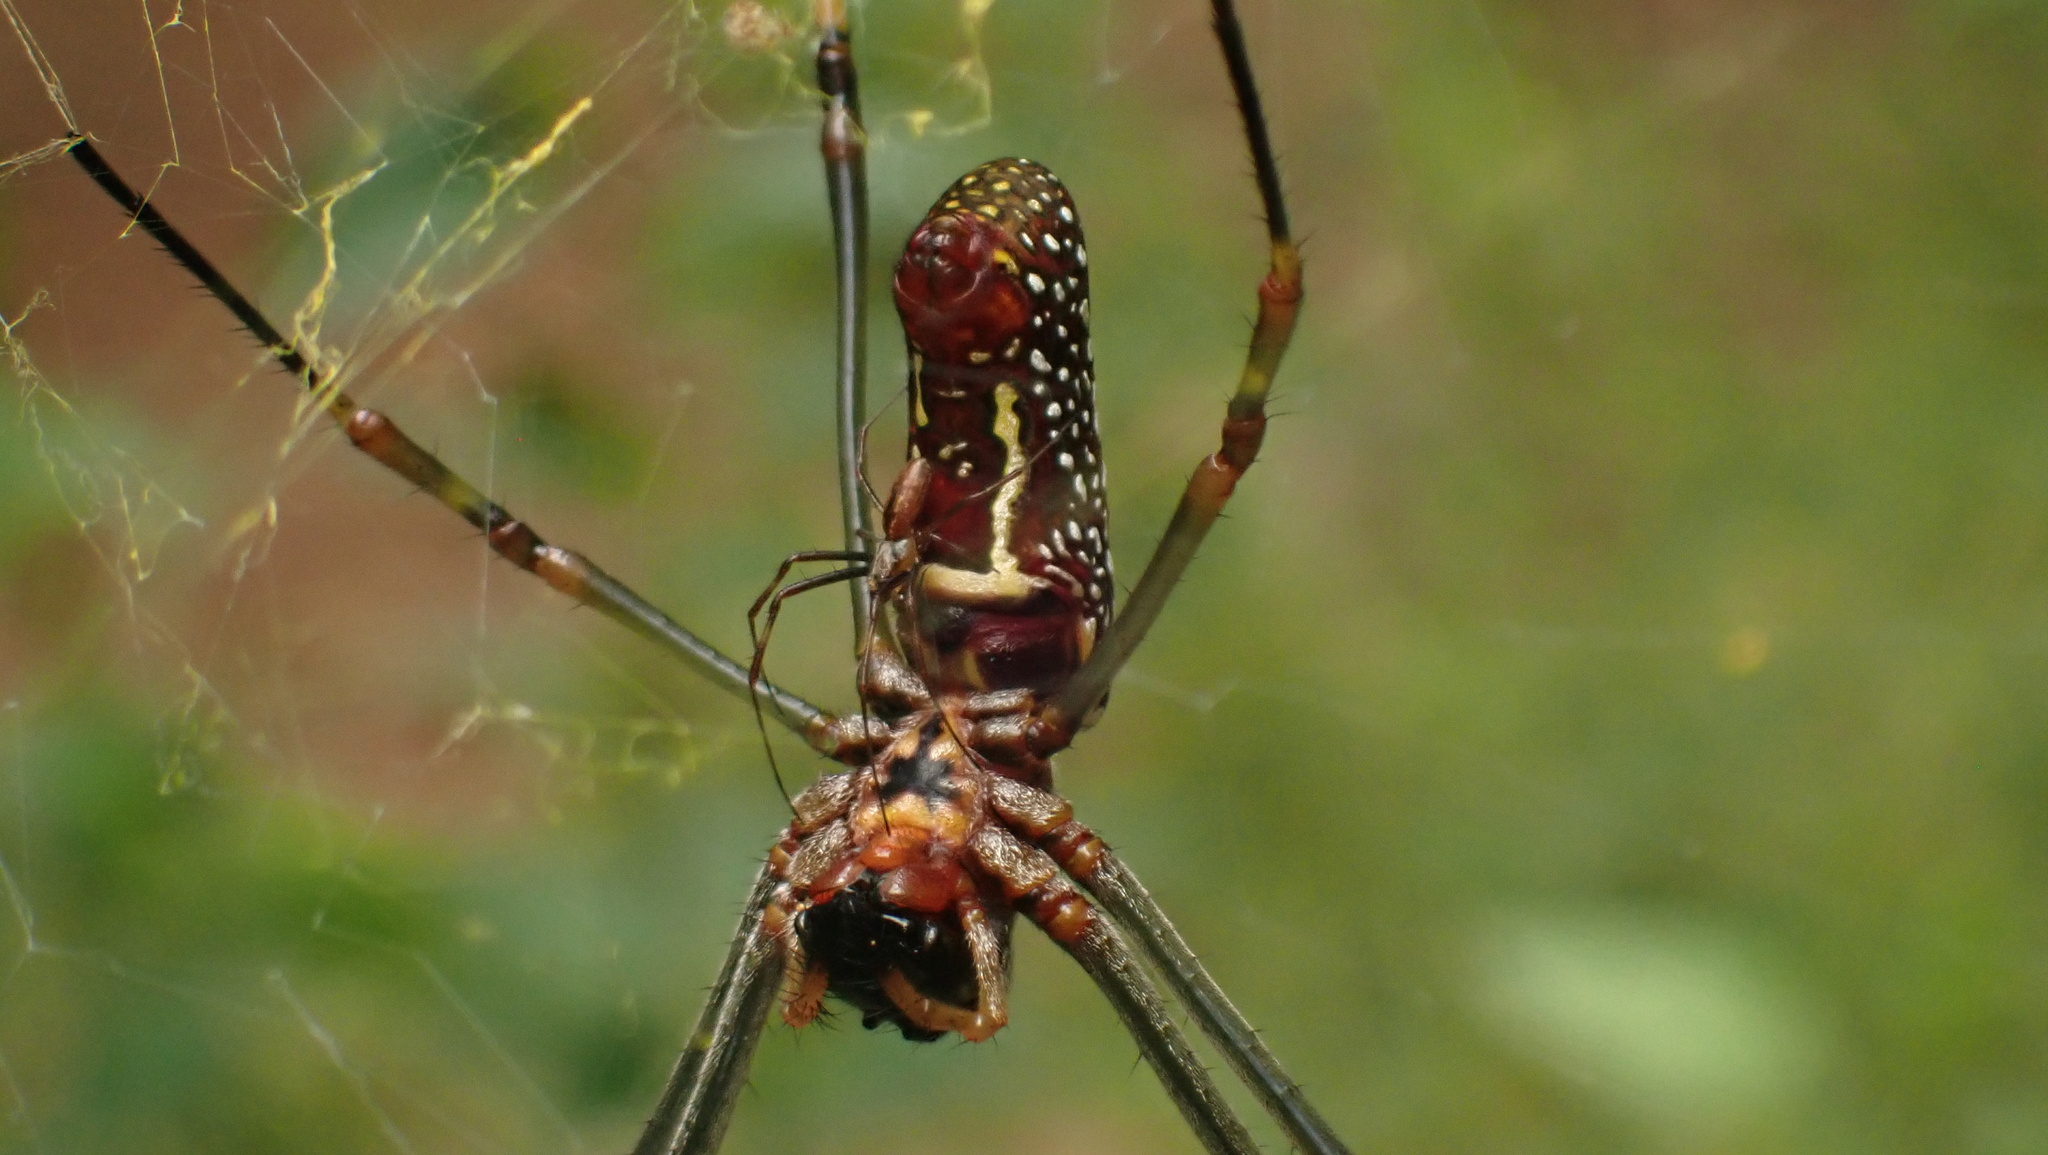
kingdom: Animalia
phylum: Arthropoda
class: Arachnida
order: Araneae
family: Araneidae
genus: Trichonephila
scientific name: Trichonephila clavipes
